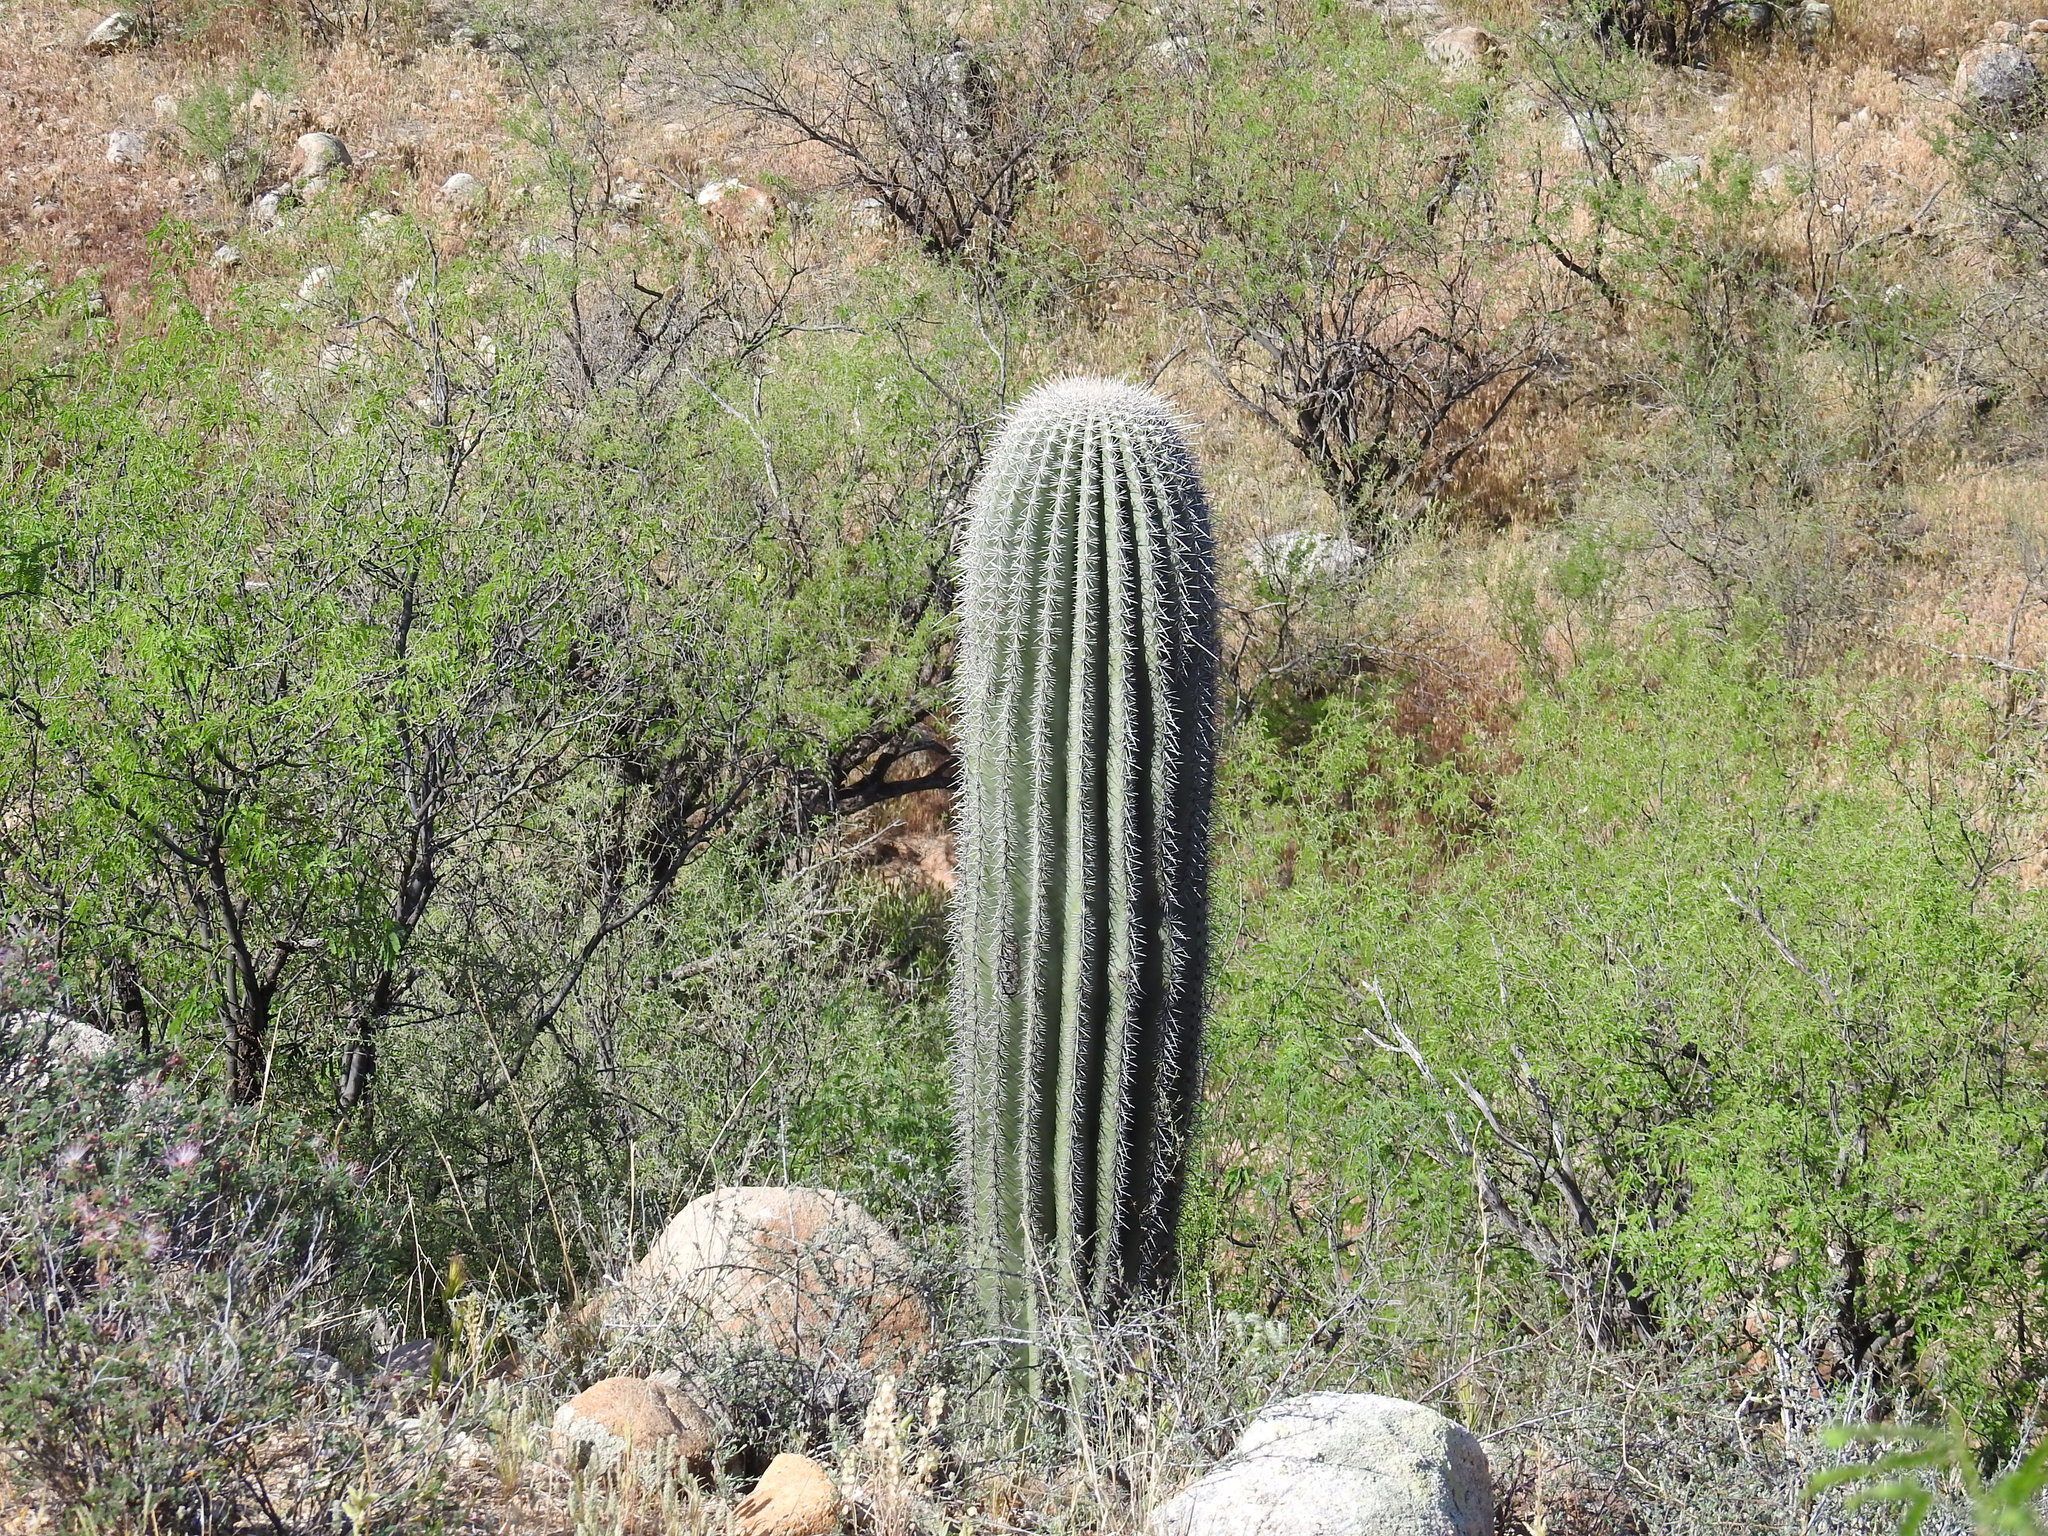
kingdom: Plantae
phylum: Tracheophyta
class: Magnoliopsida
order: Caryophyllales
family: Cactaceae
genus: Carnegiea
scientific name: Carnegiea gigantea
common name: Saguaro
